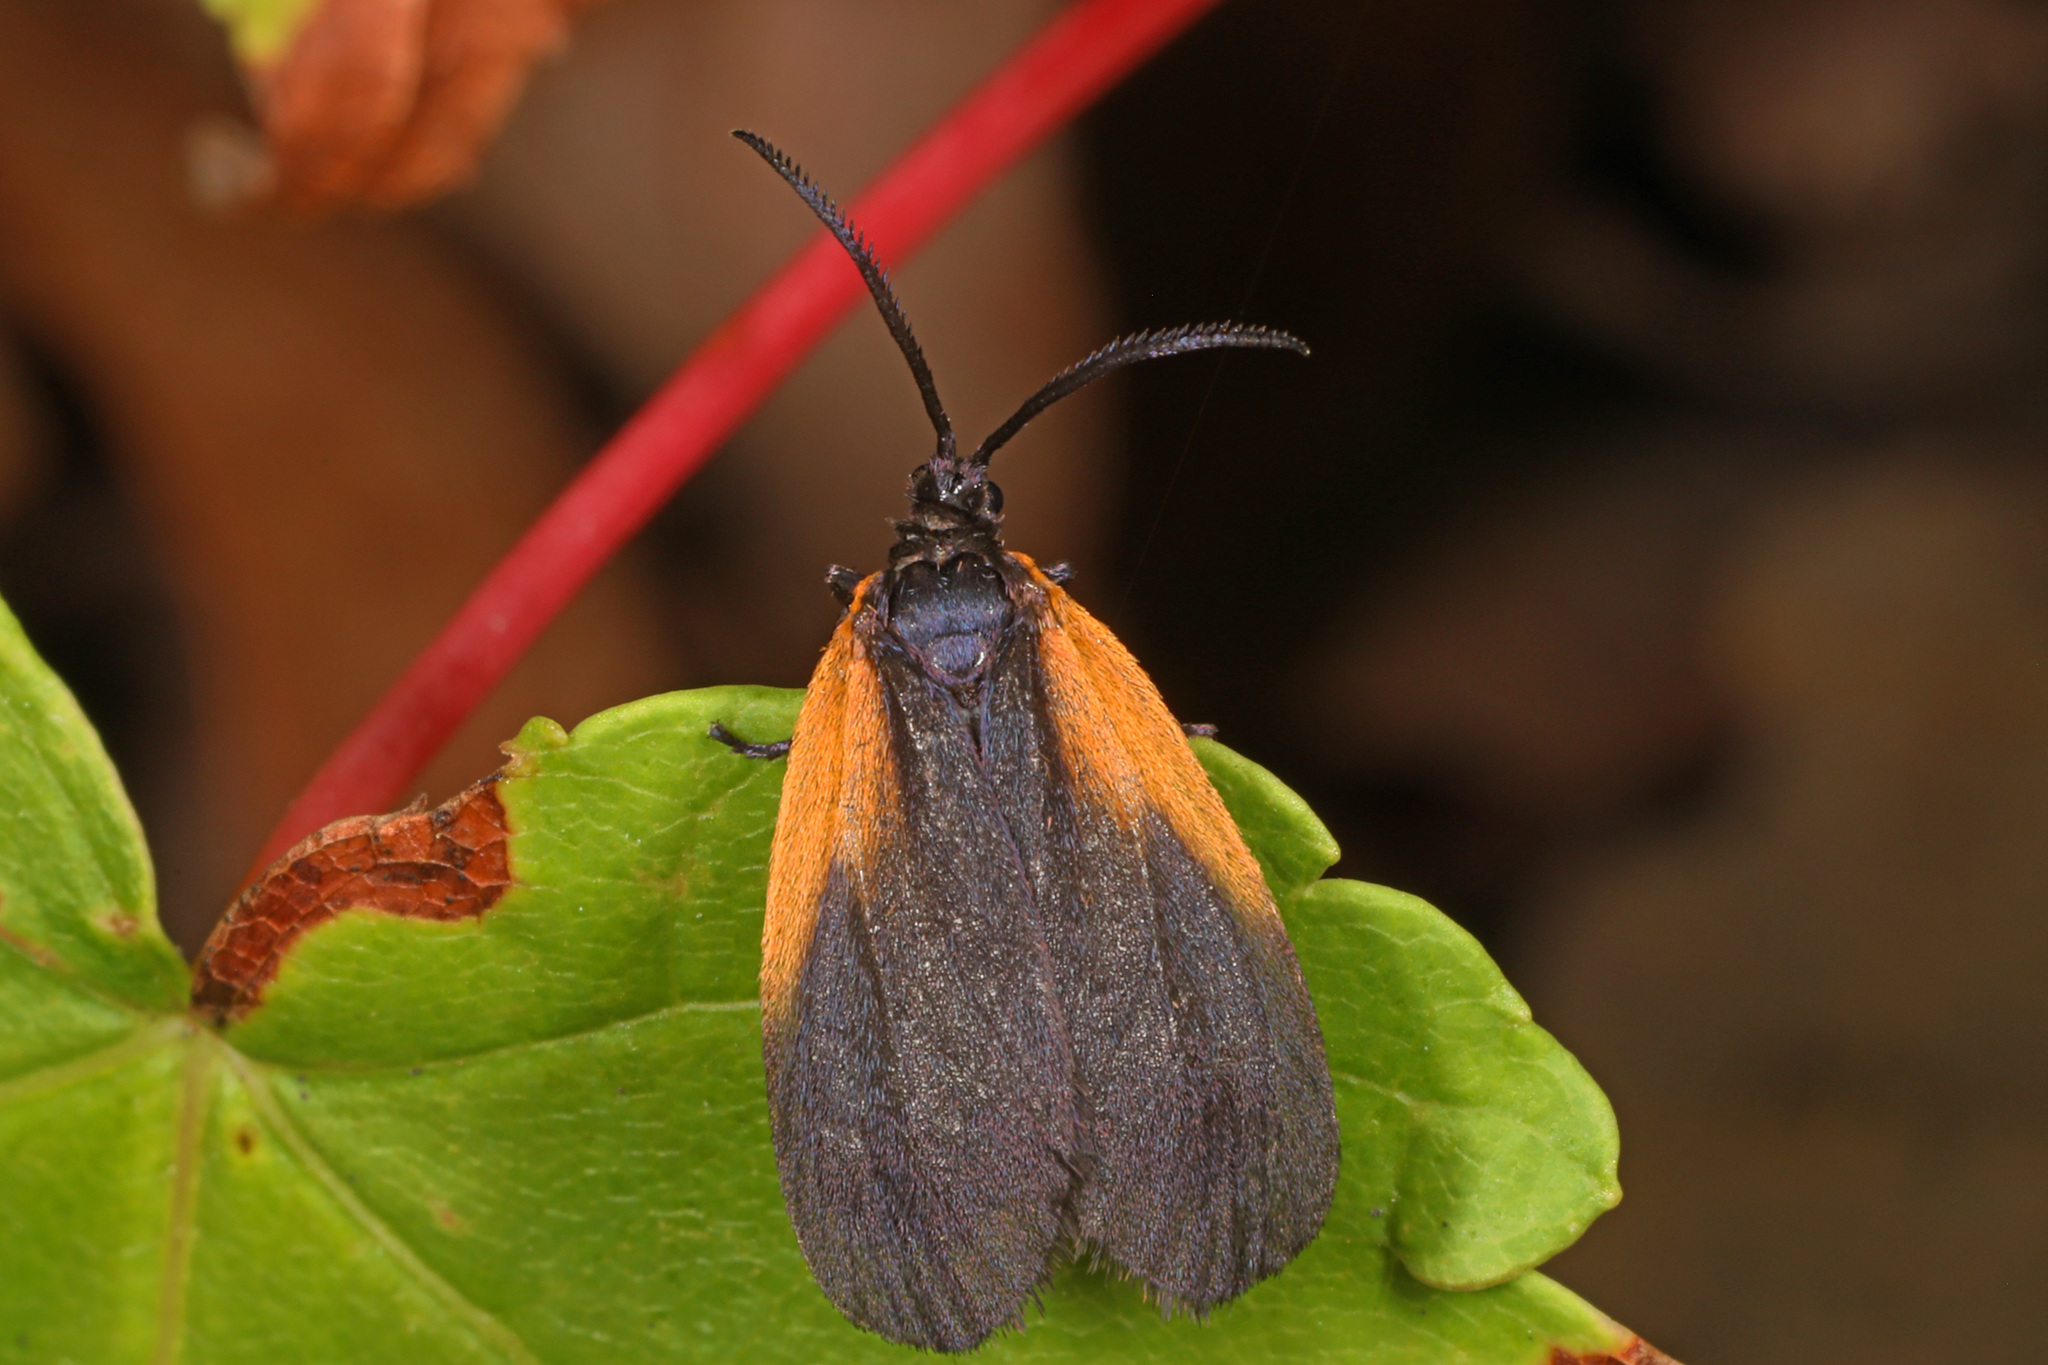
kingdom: Animalia
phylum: Arthropoda
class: Insecta
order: Lepidoptera
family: Zygaenidae
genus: Malthaca
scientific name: Malthaca dimidiata
